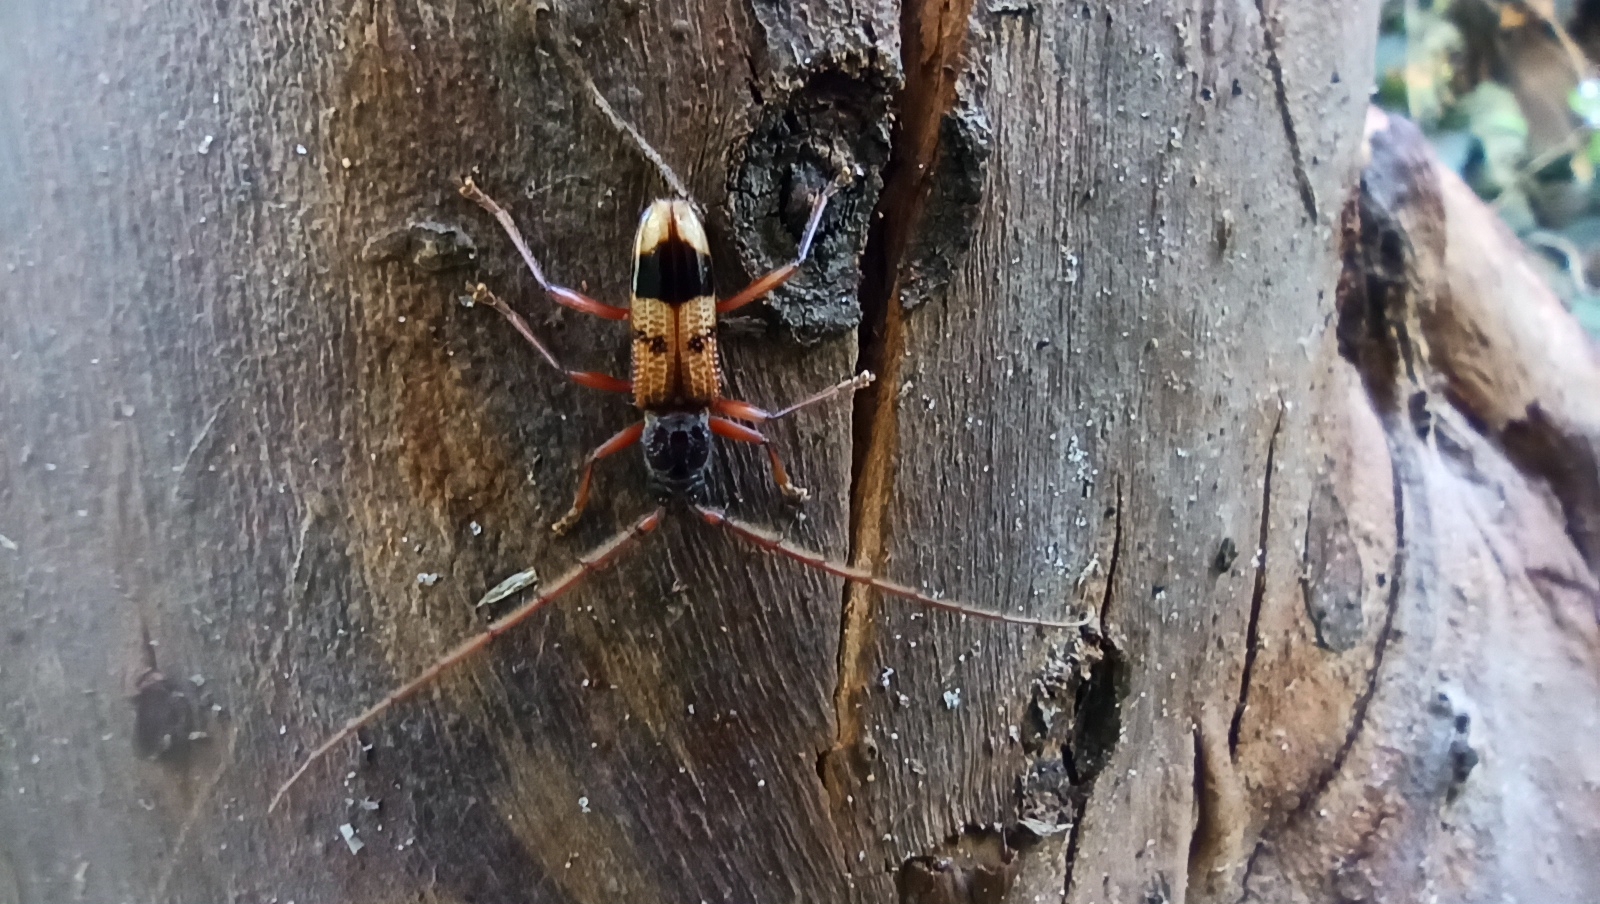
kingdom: Animalia
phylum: Arthropoda
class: Insecta
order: Coleoptera
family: Cerambycidae
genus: Phoracantha
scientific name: Phoracantha recurva
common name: Eucalyptus longhorned borer
